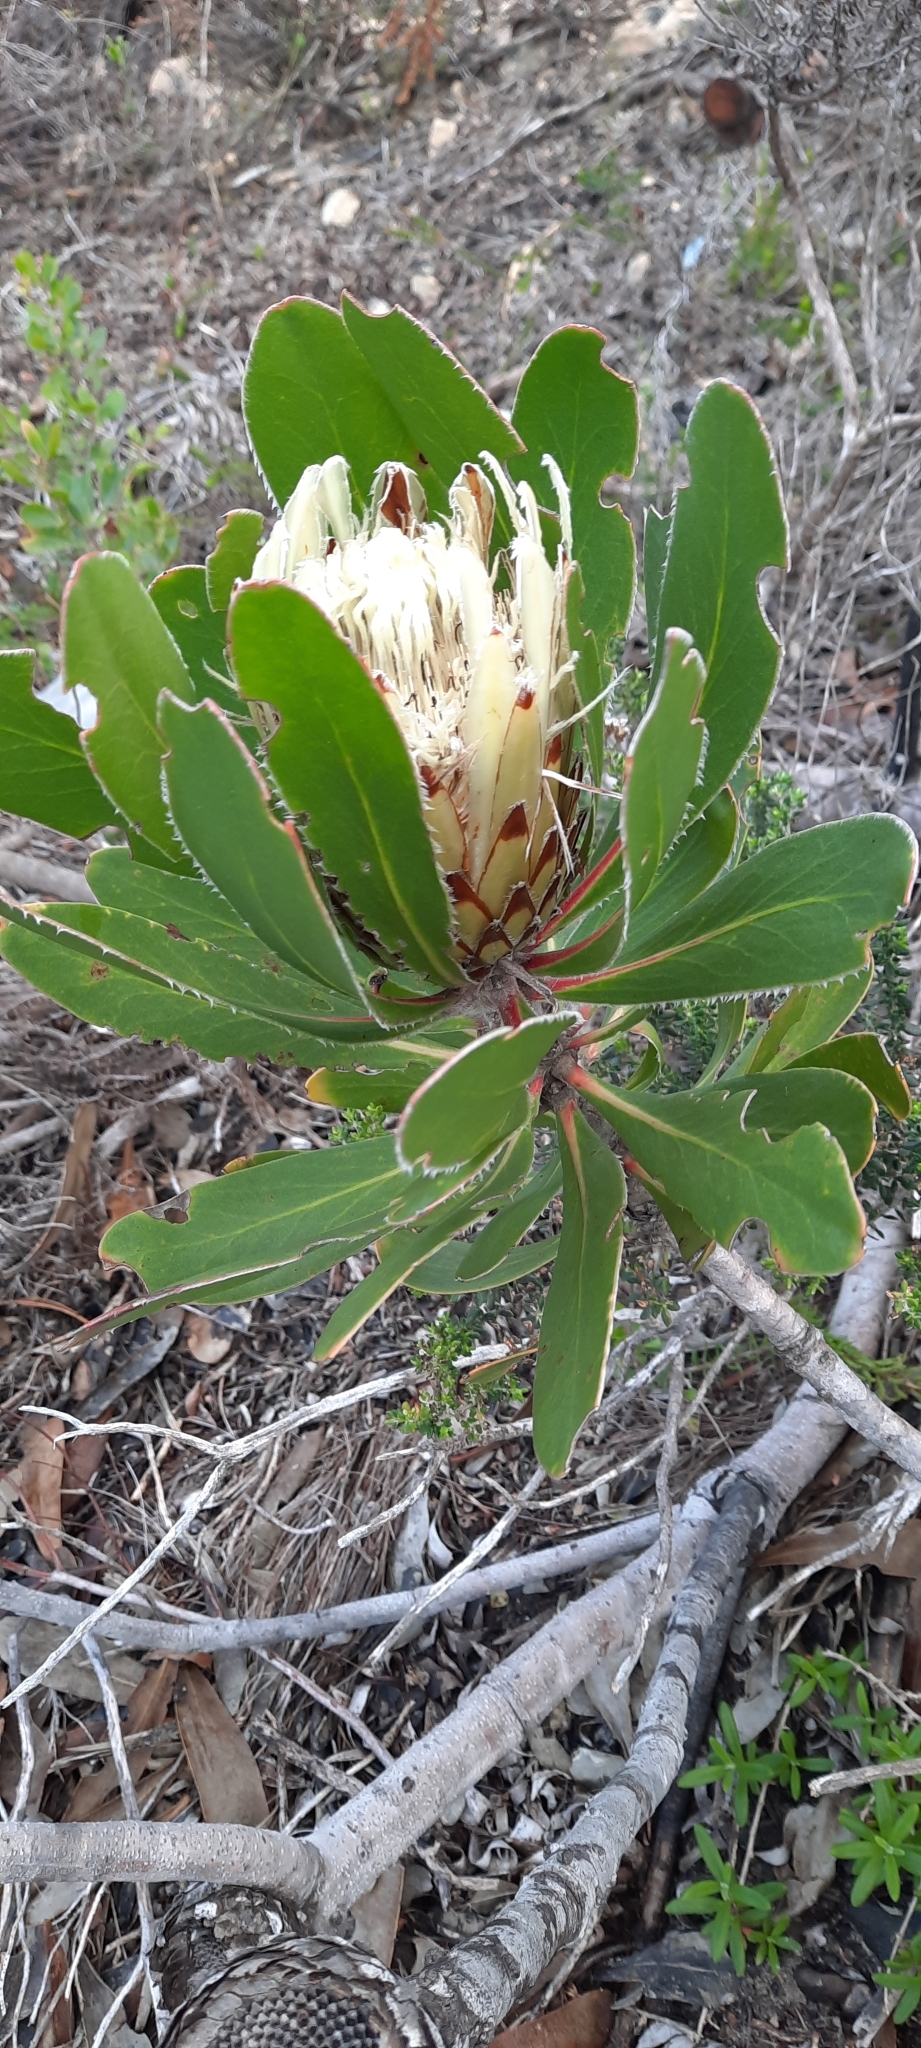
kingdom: Plantae
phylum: Tracheophyta
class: Magnoliopsida
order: Proteales
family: Proteaceae
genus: Protea
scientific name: Protea obtusifolia
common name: Bredasdorp sugarbush
